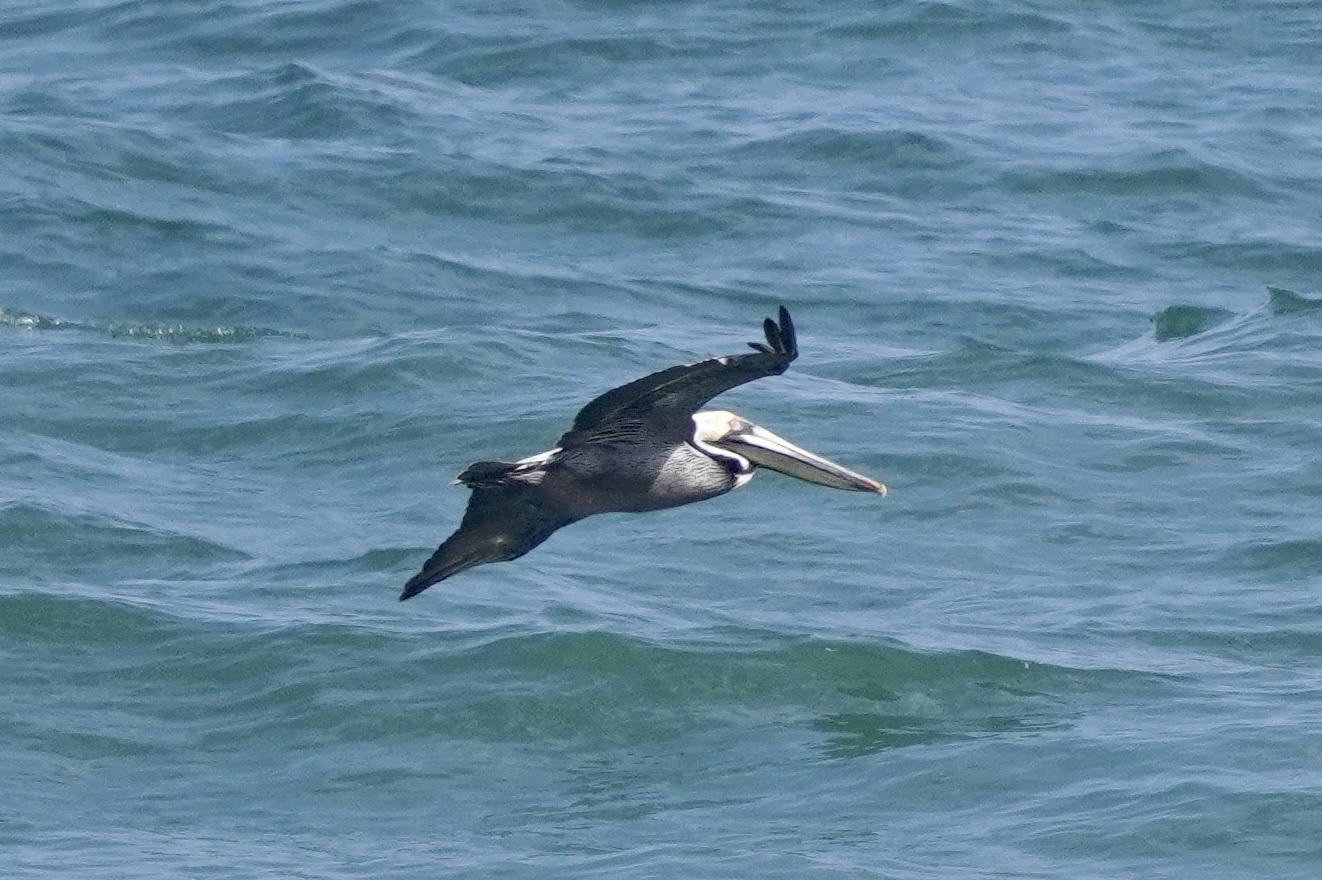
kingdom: Animalia
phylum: Chordata
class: Aves
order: Pelecaniformes
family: Pelecanidae
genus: Pelecanus
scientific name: Pelecanus occidentalis
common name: Brown pelican
